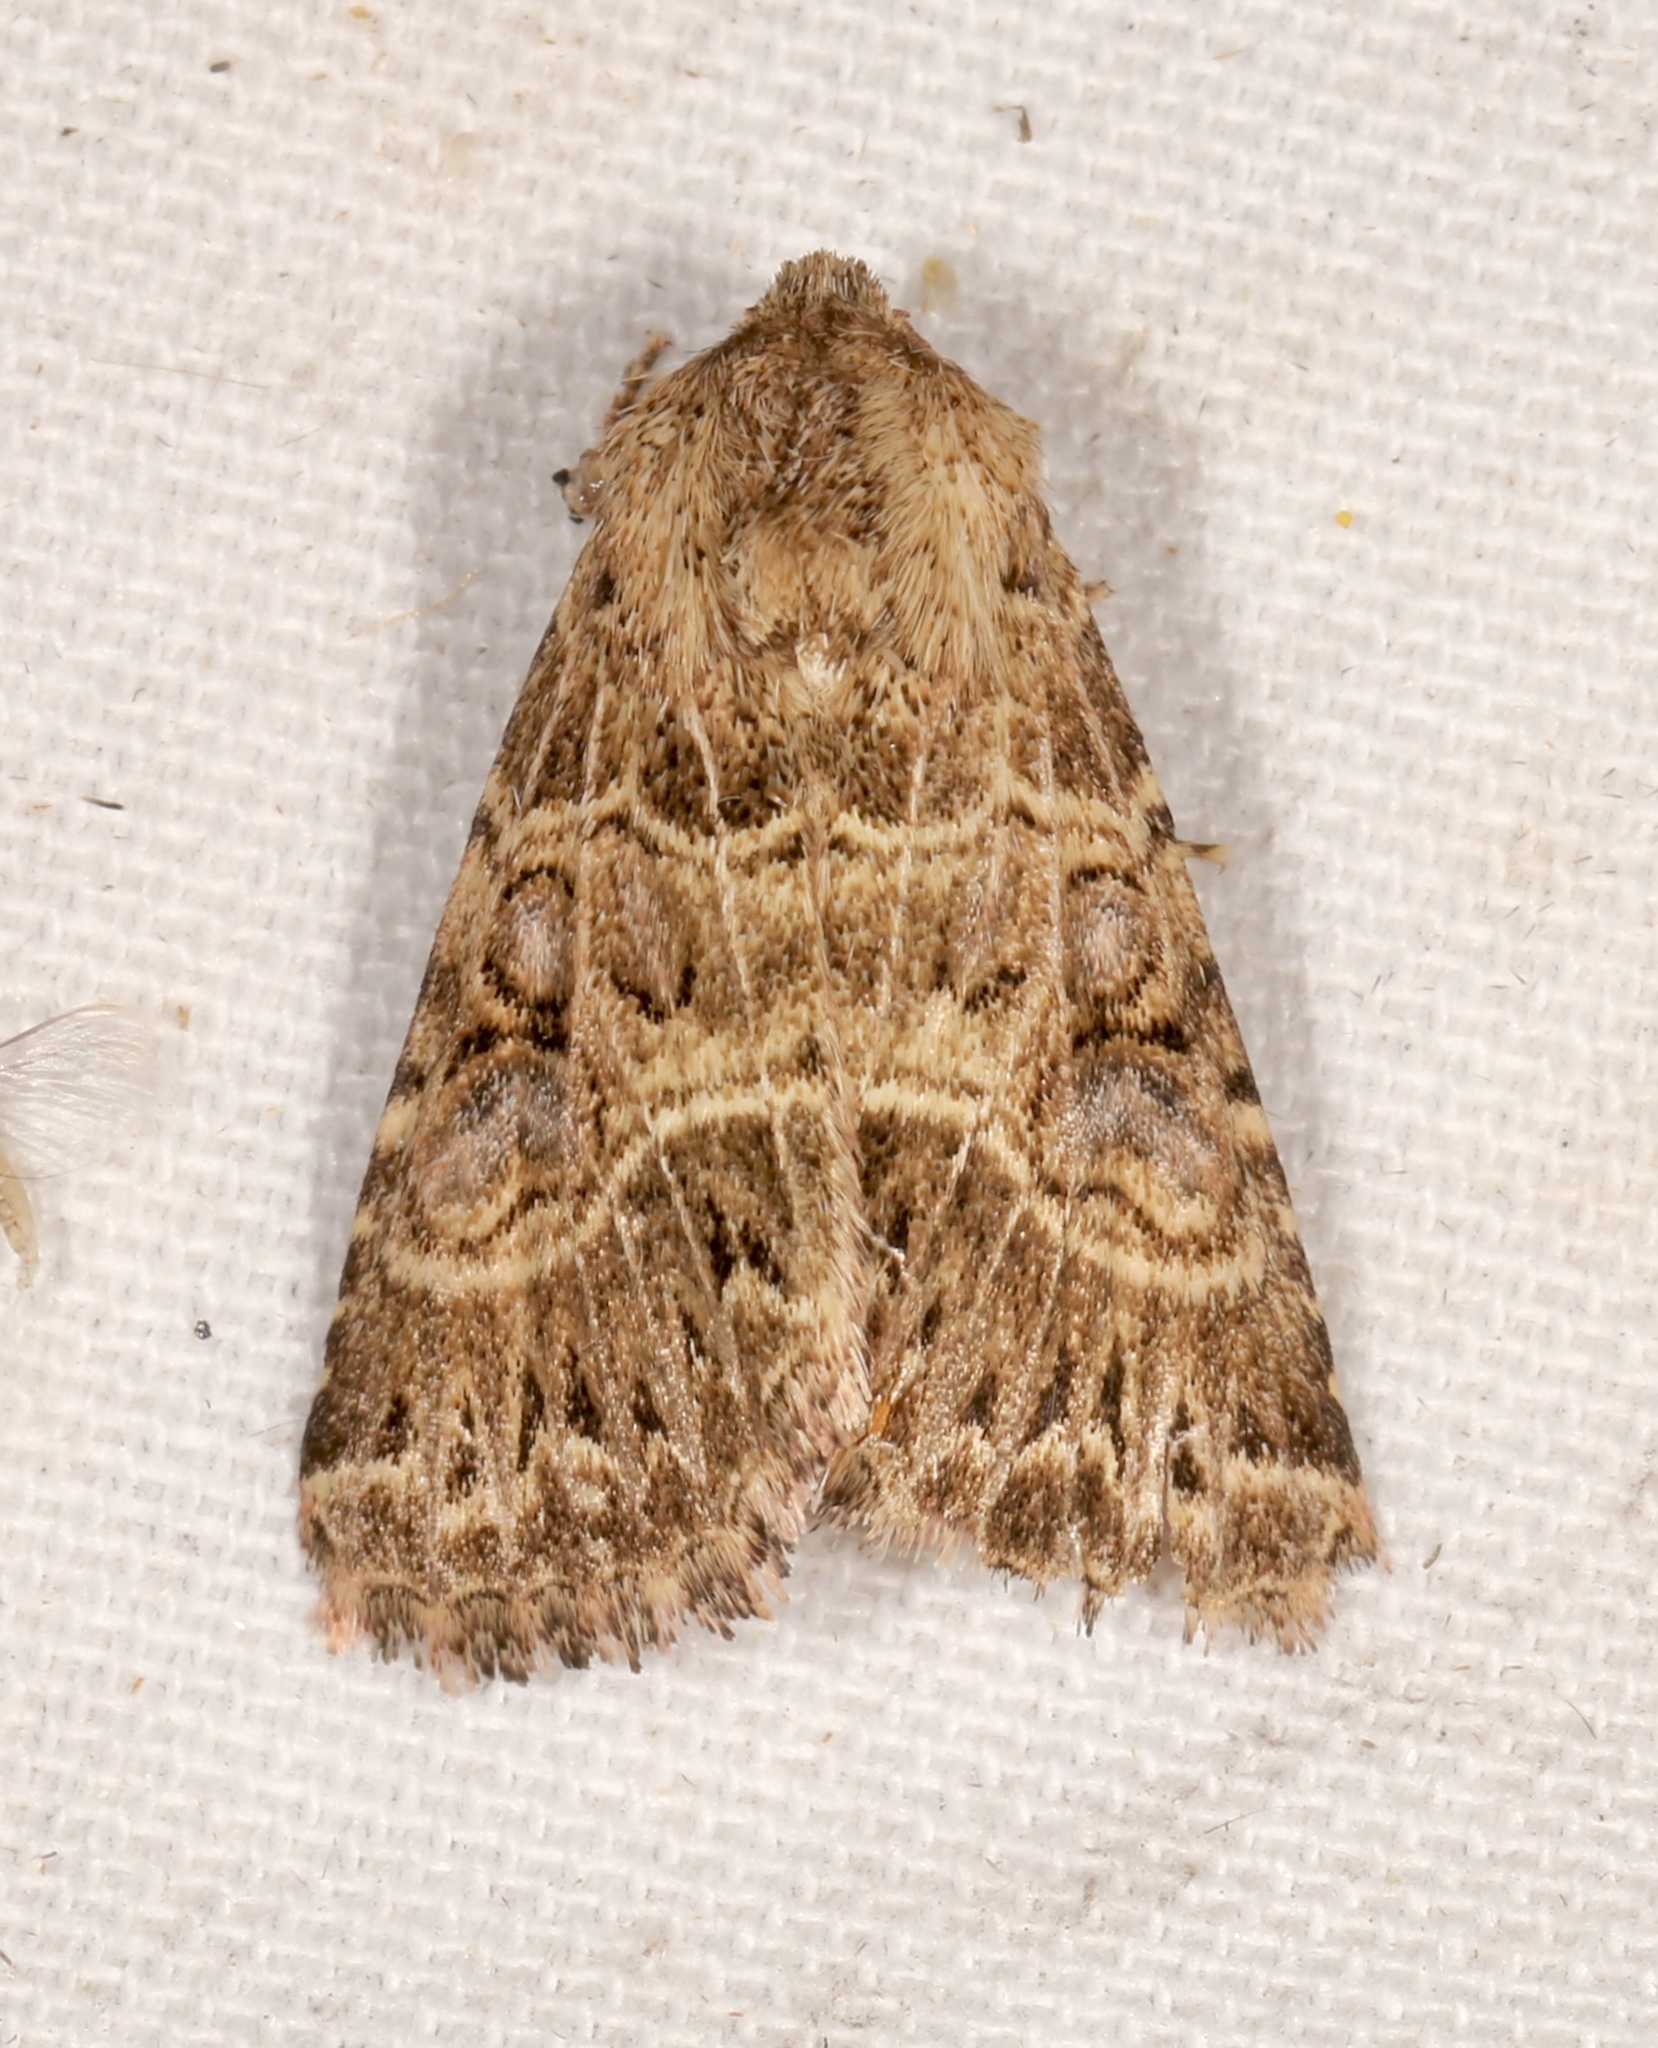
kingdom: Animalia
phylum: Arthropoda
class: Insecta
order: Lepidoptera
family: Noctuidae
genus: Schinia
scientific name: Schinia mexicana
